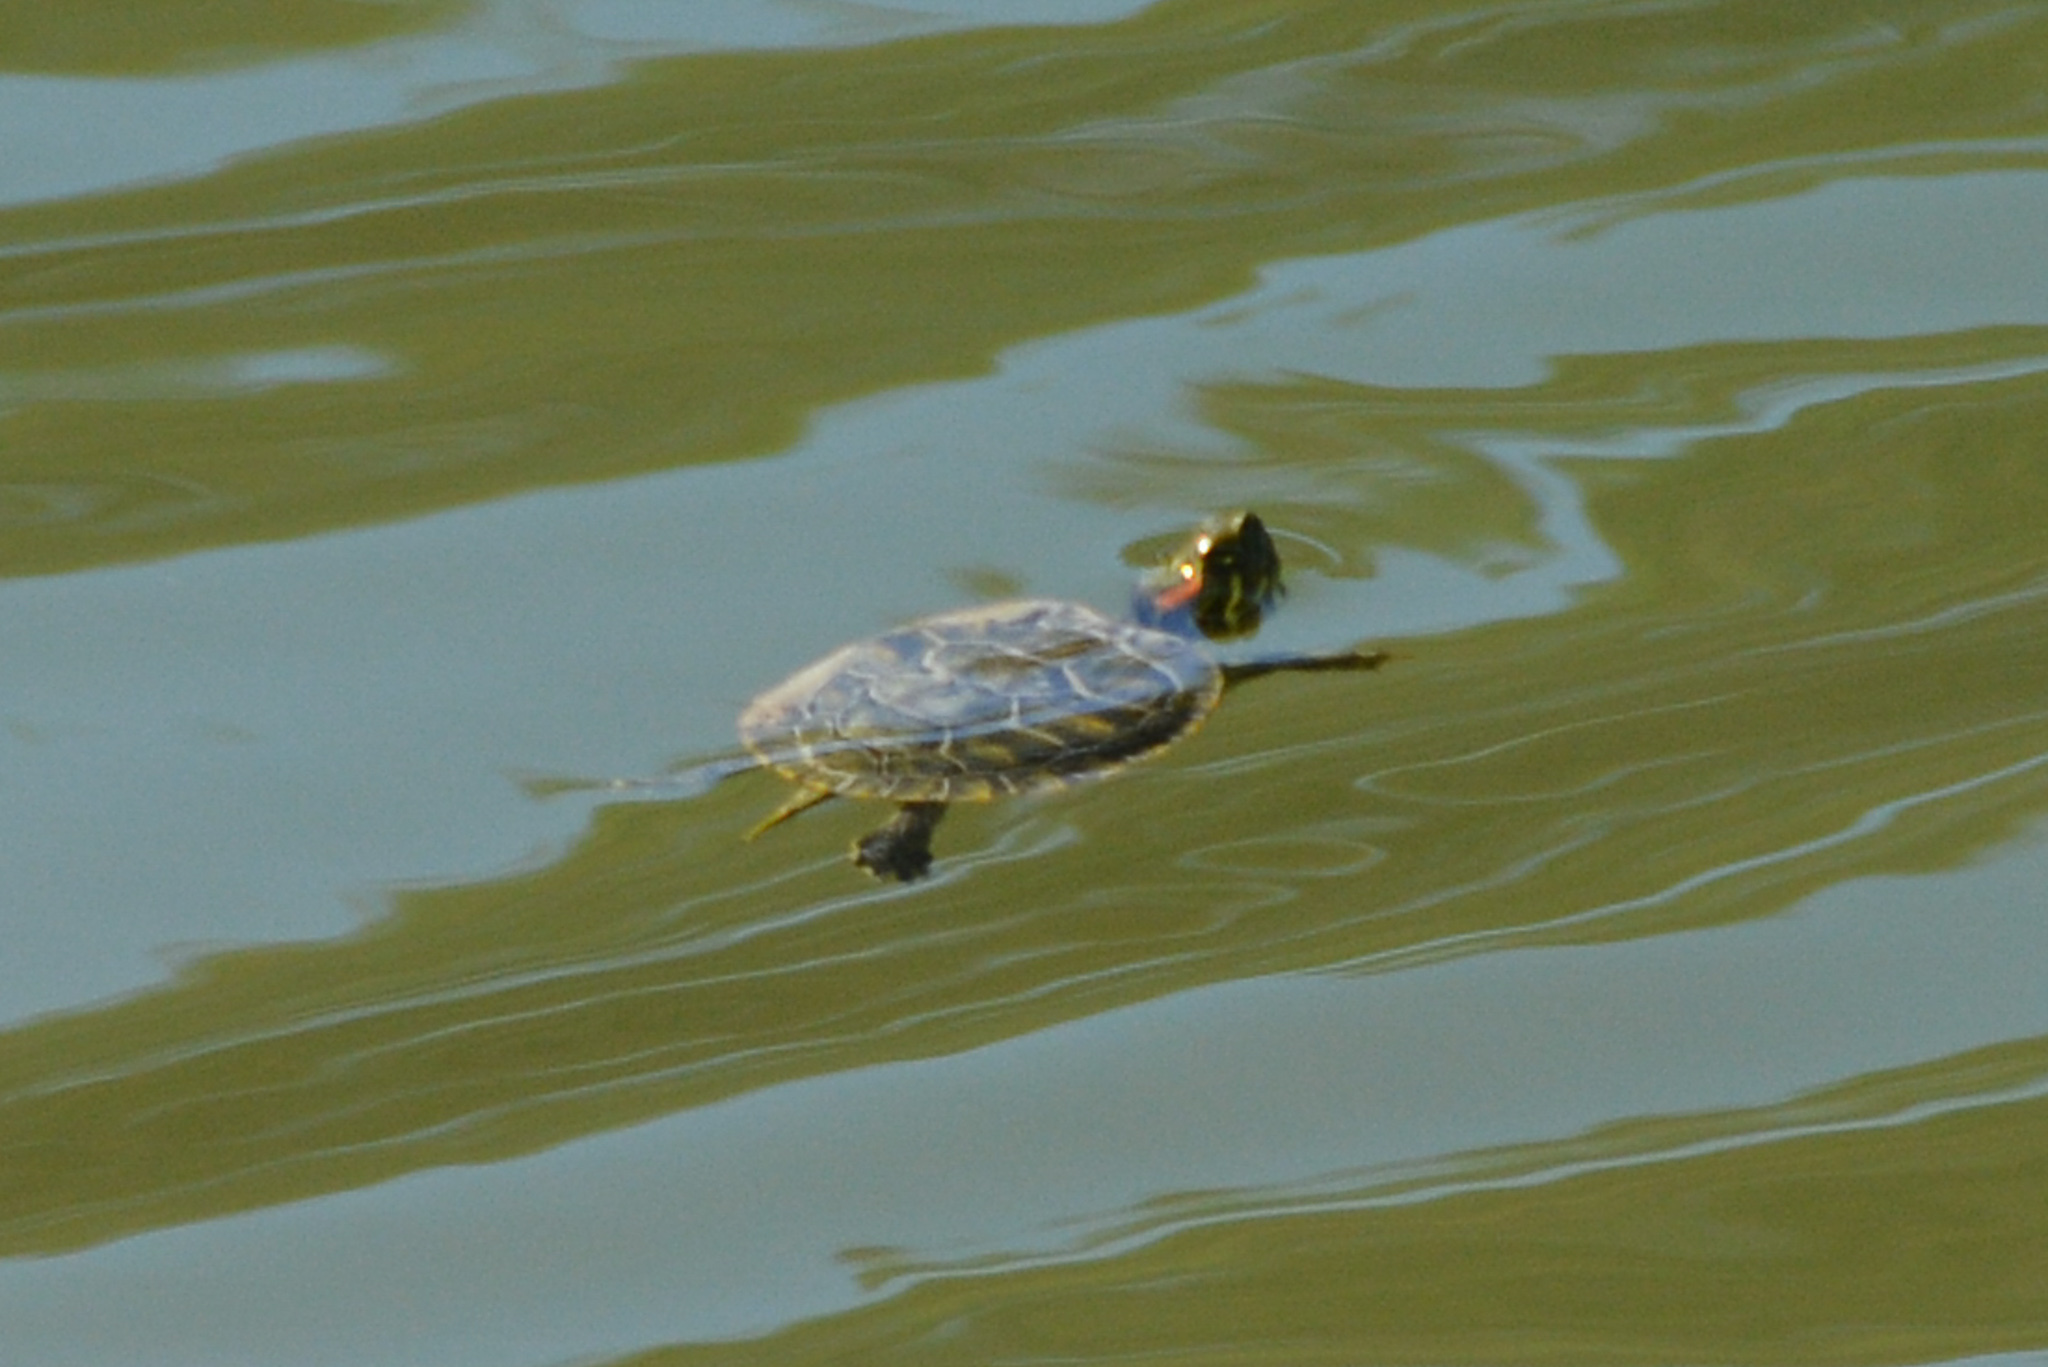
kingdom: Animalia
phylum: Chordata
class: Testudines
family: Emydidae
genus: Trachemys
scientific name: Trachemys scripta
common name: Slider
